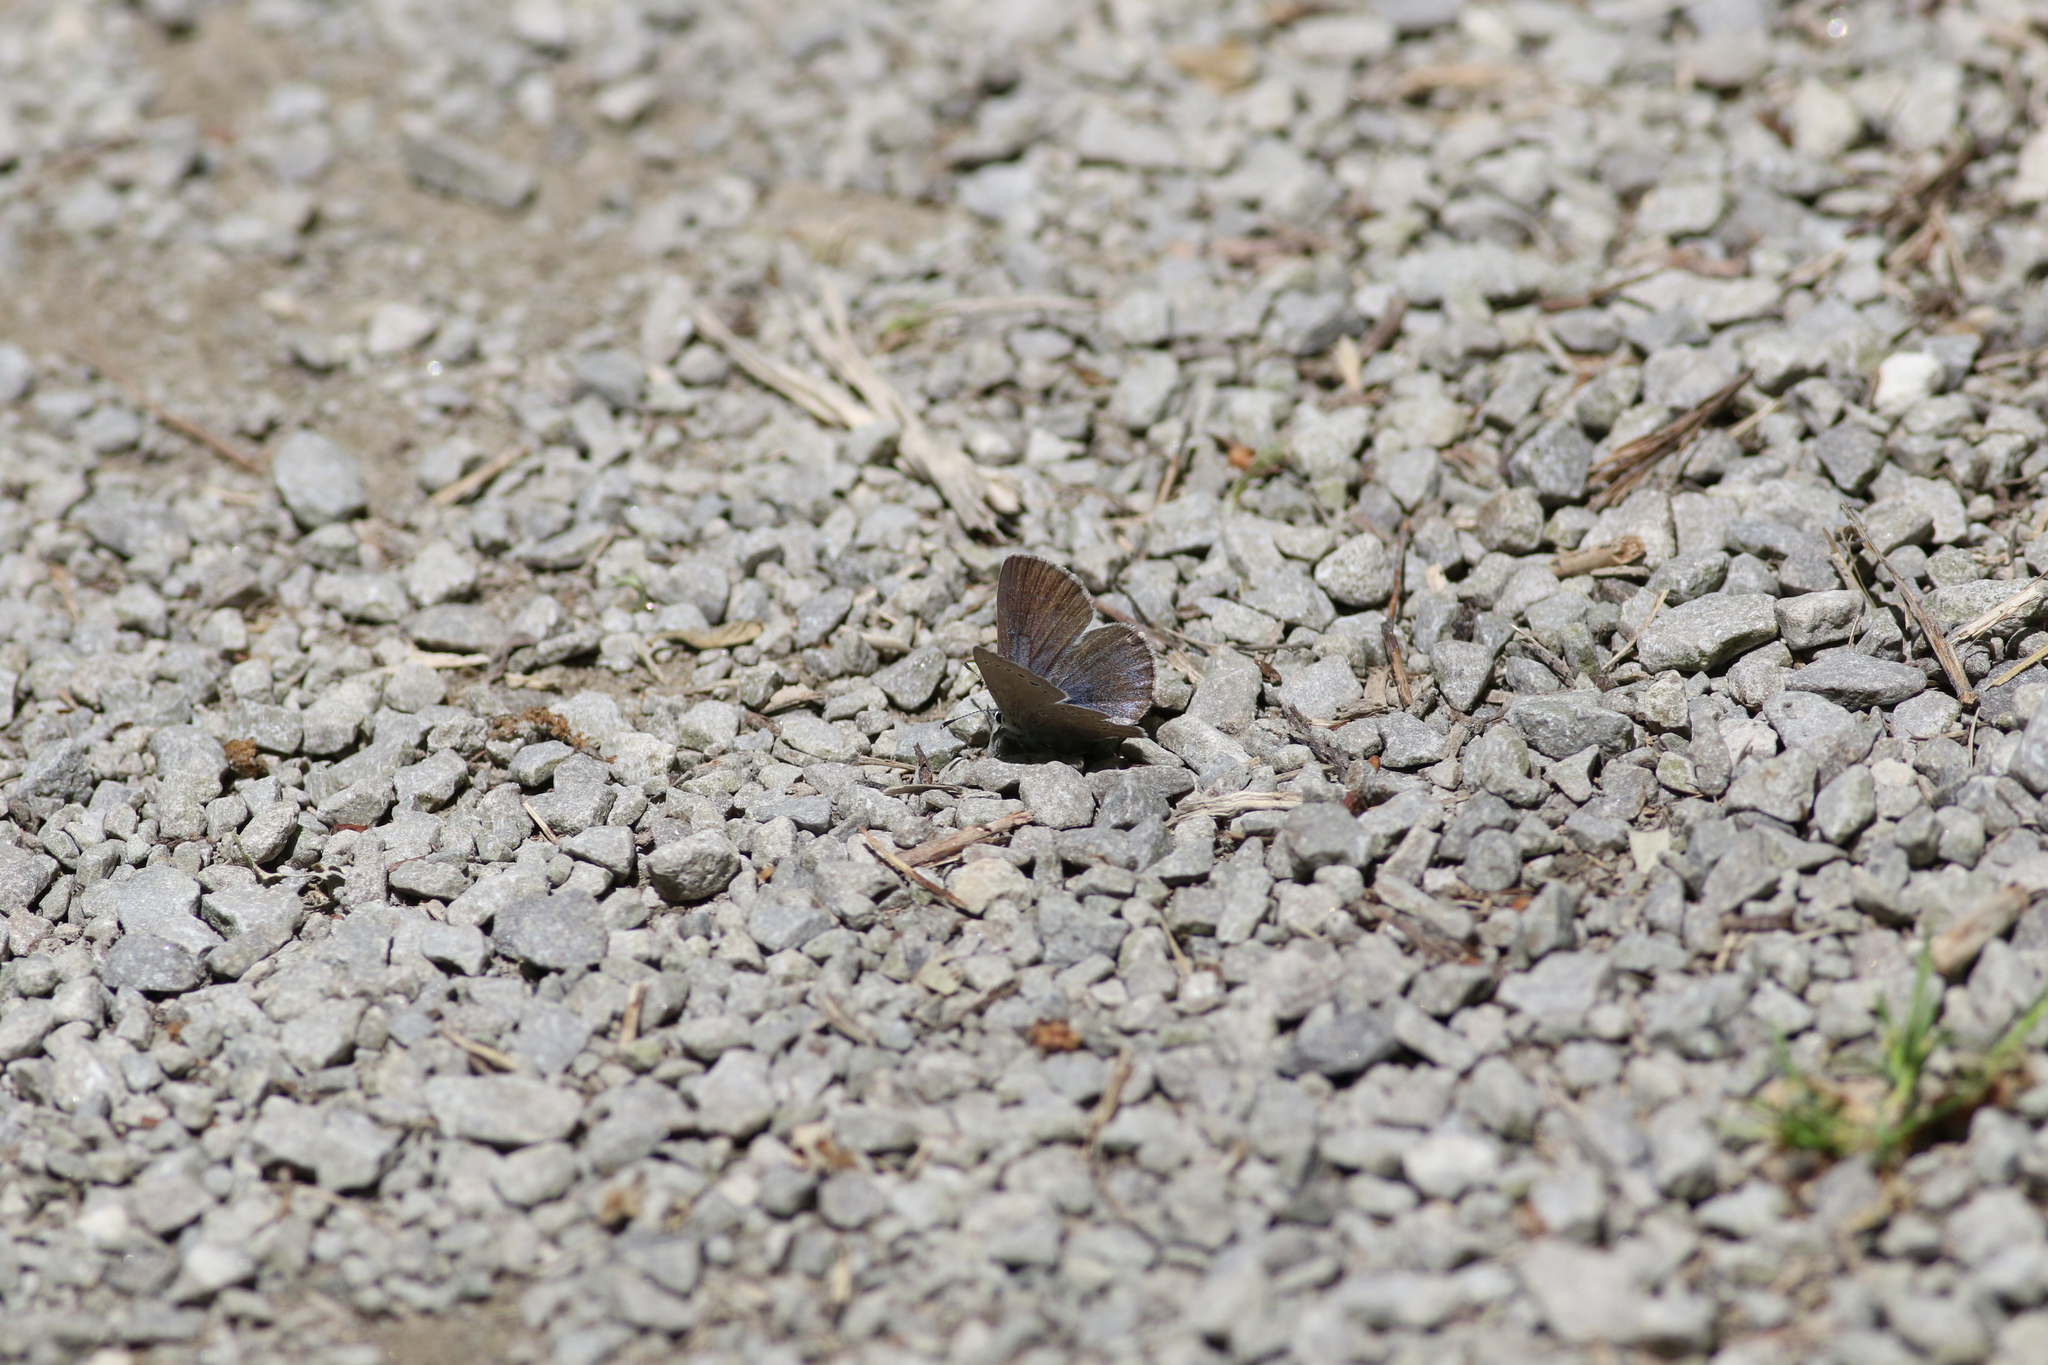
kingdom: Animalia
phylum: Arthropoda
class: Insecta
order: Lepidoptera
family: Lycaenidae
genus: Glaucopsyche
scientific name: Glaucopsyche lygdamus
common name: Silvery blue
